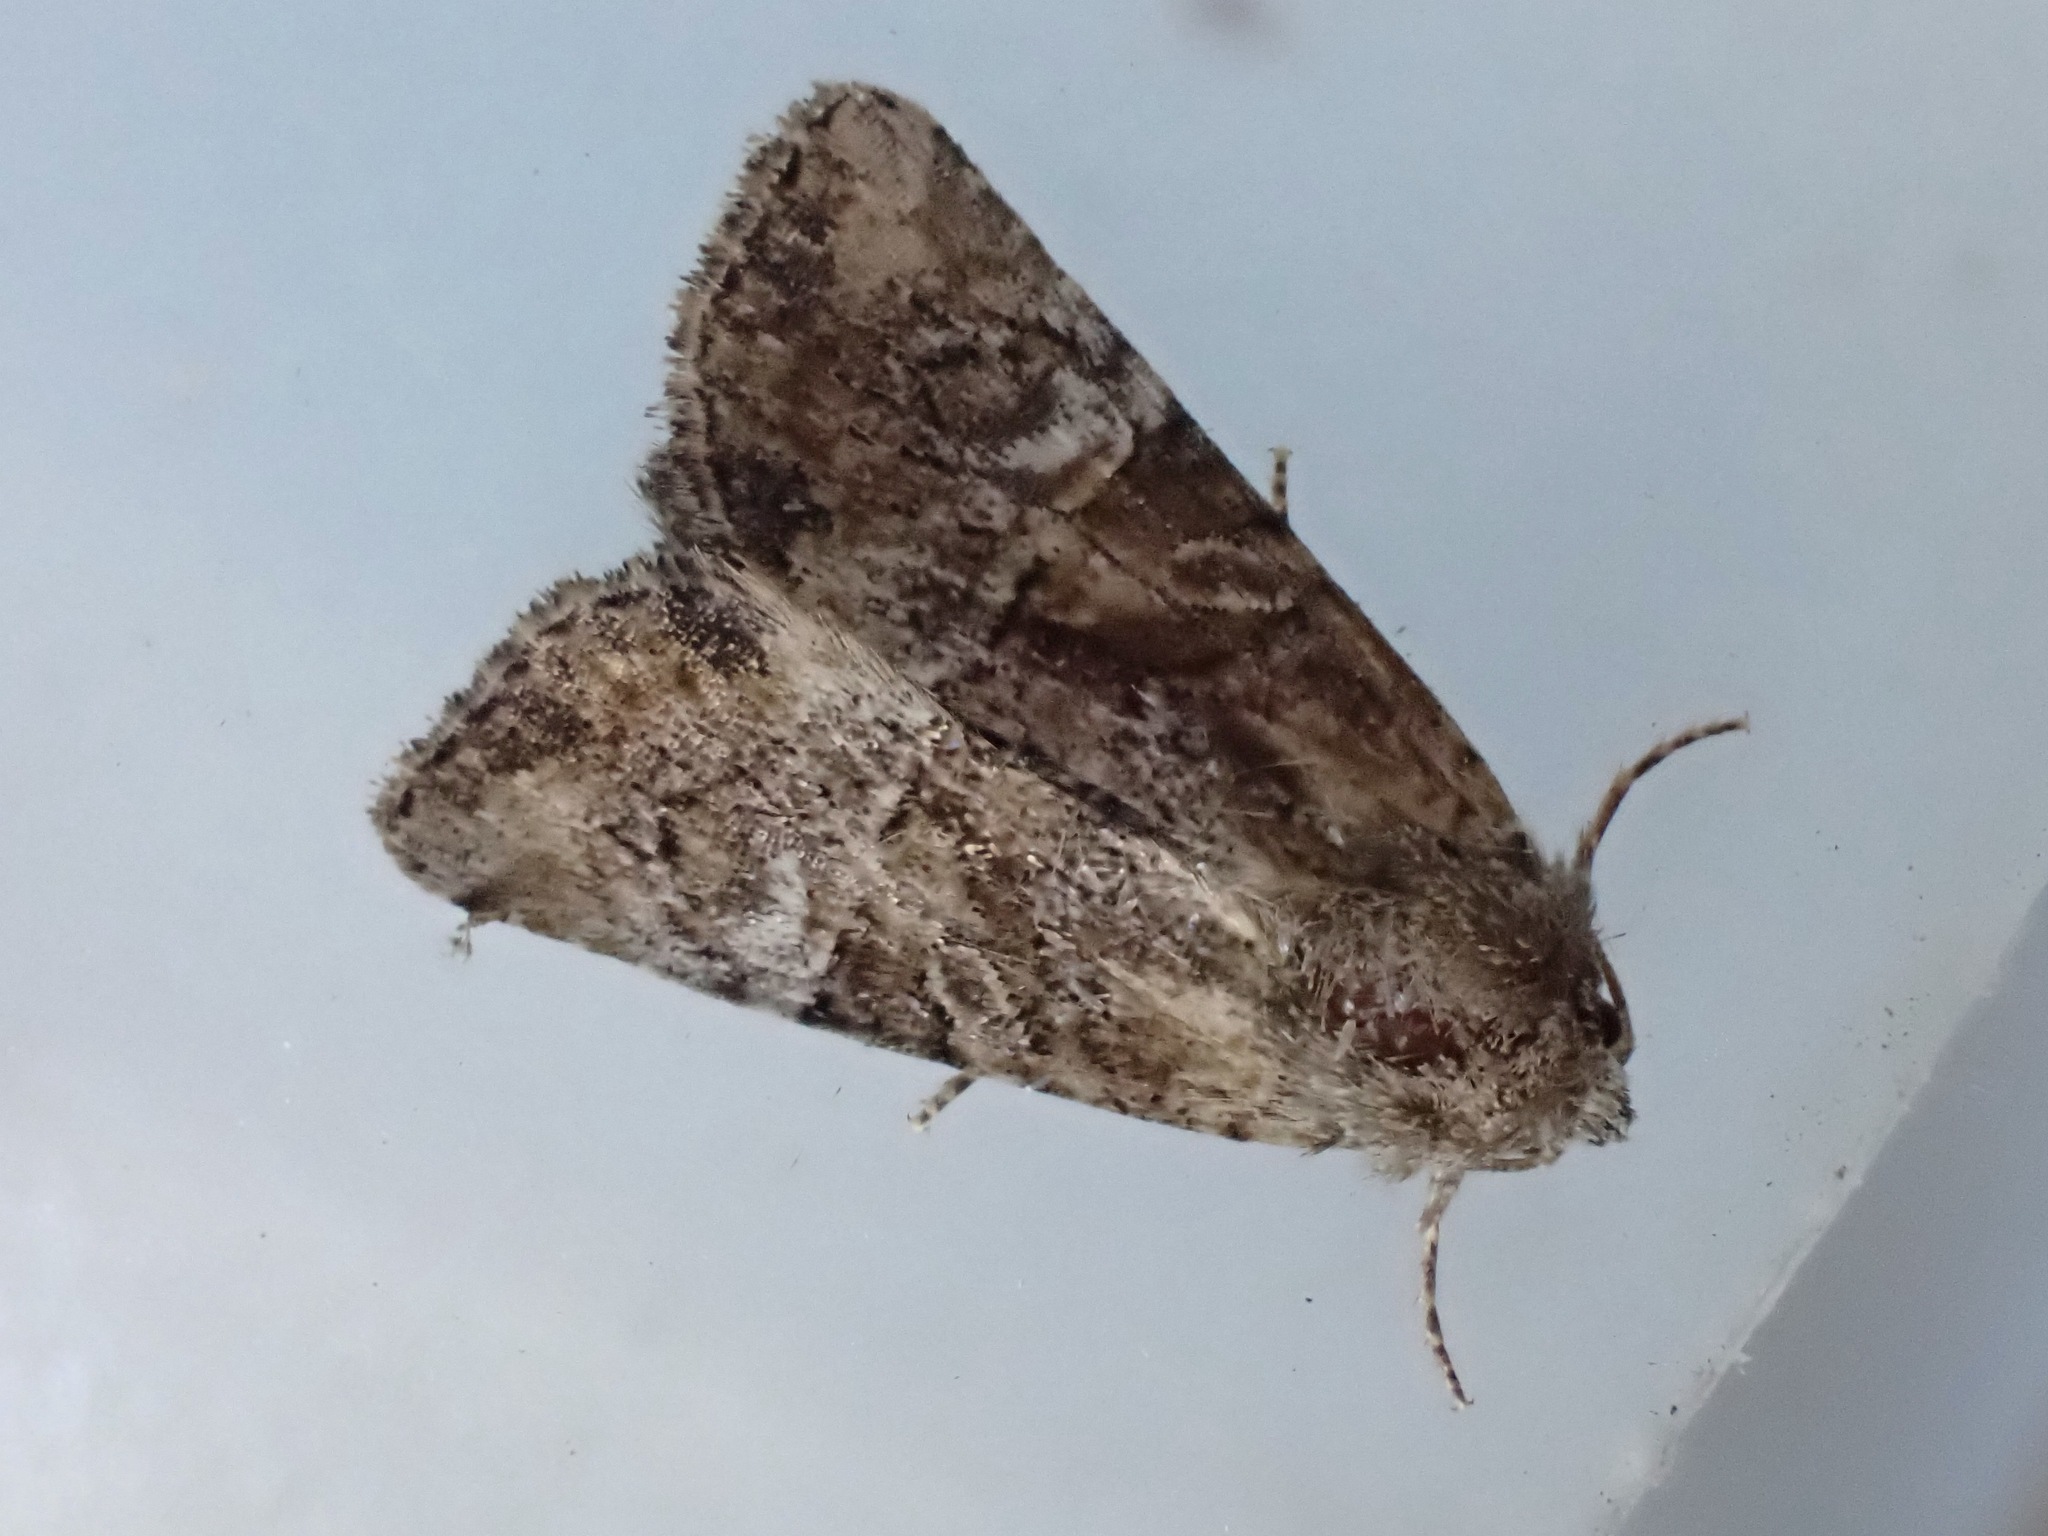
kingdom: Animalia
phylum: Arthropoda
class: Insecta
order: Lepidoptera
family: Noctuidae
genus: Mesoligia
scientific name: Mesoligia furuncula
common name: Cloaked minor
